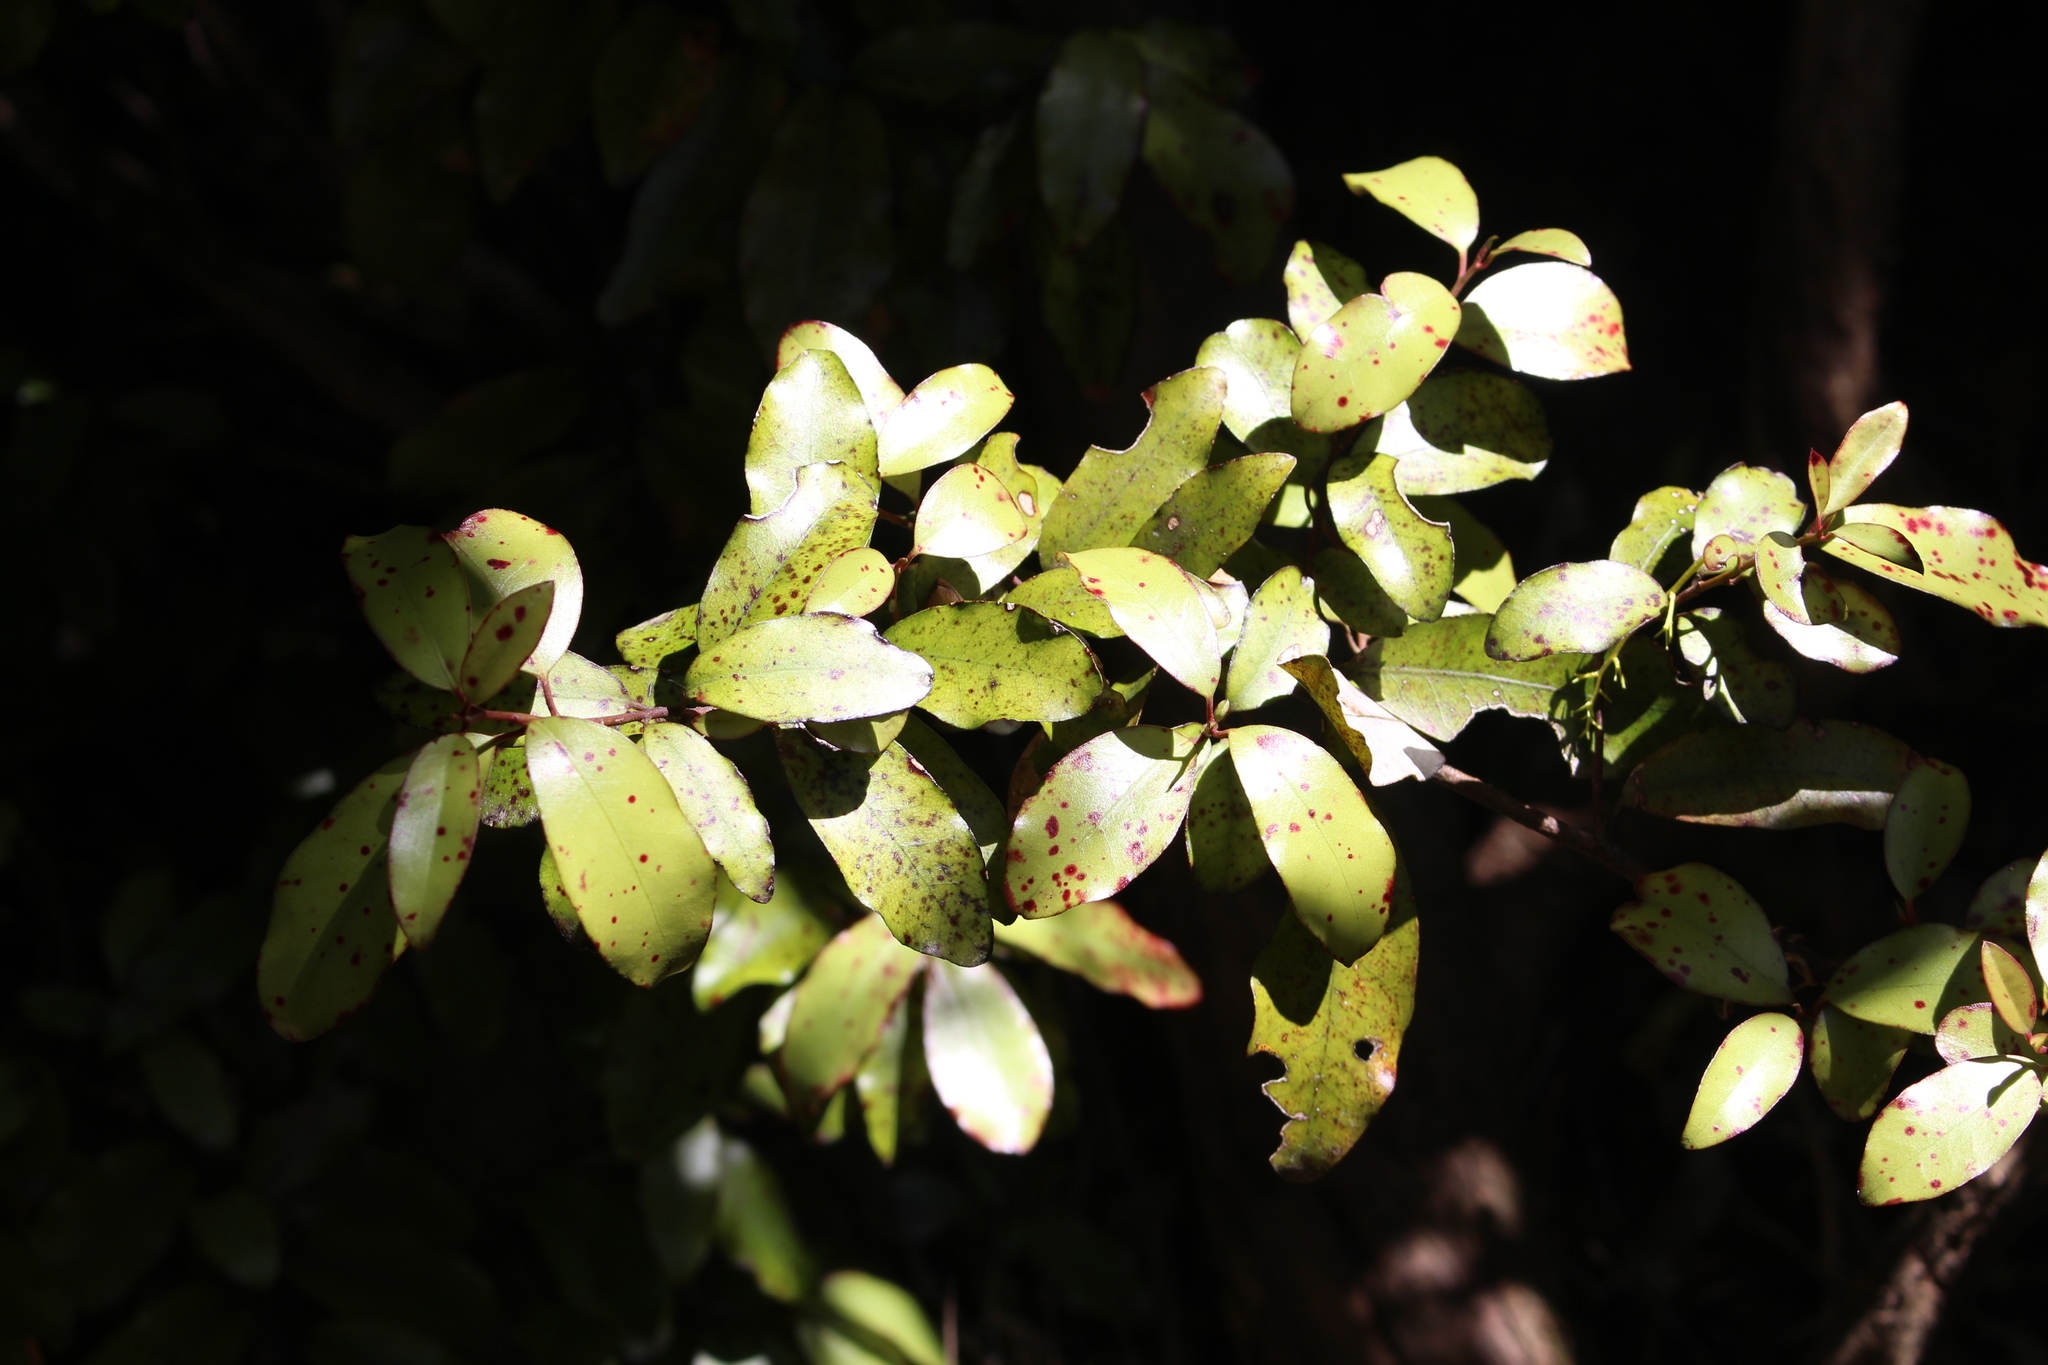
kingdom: Plantae
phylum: Tracheophyta
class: Magnoliopsida
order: Canellales
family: Winteraceae
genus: Pseudowintera
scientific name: Pseudowintera colorata
